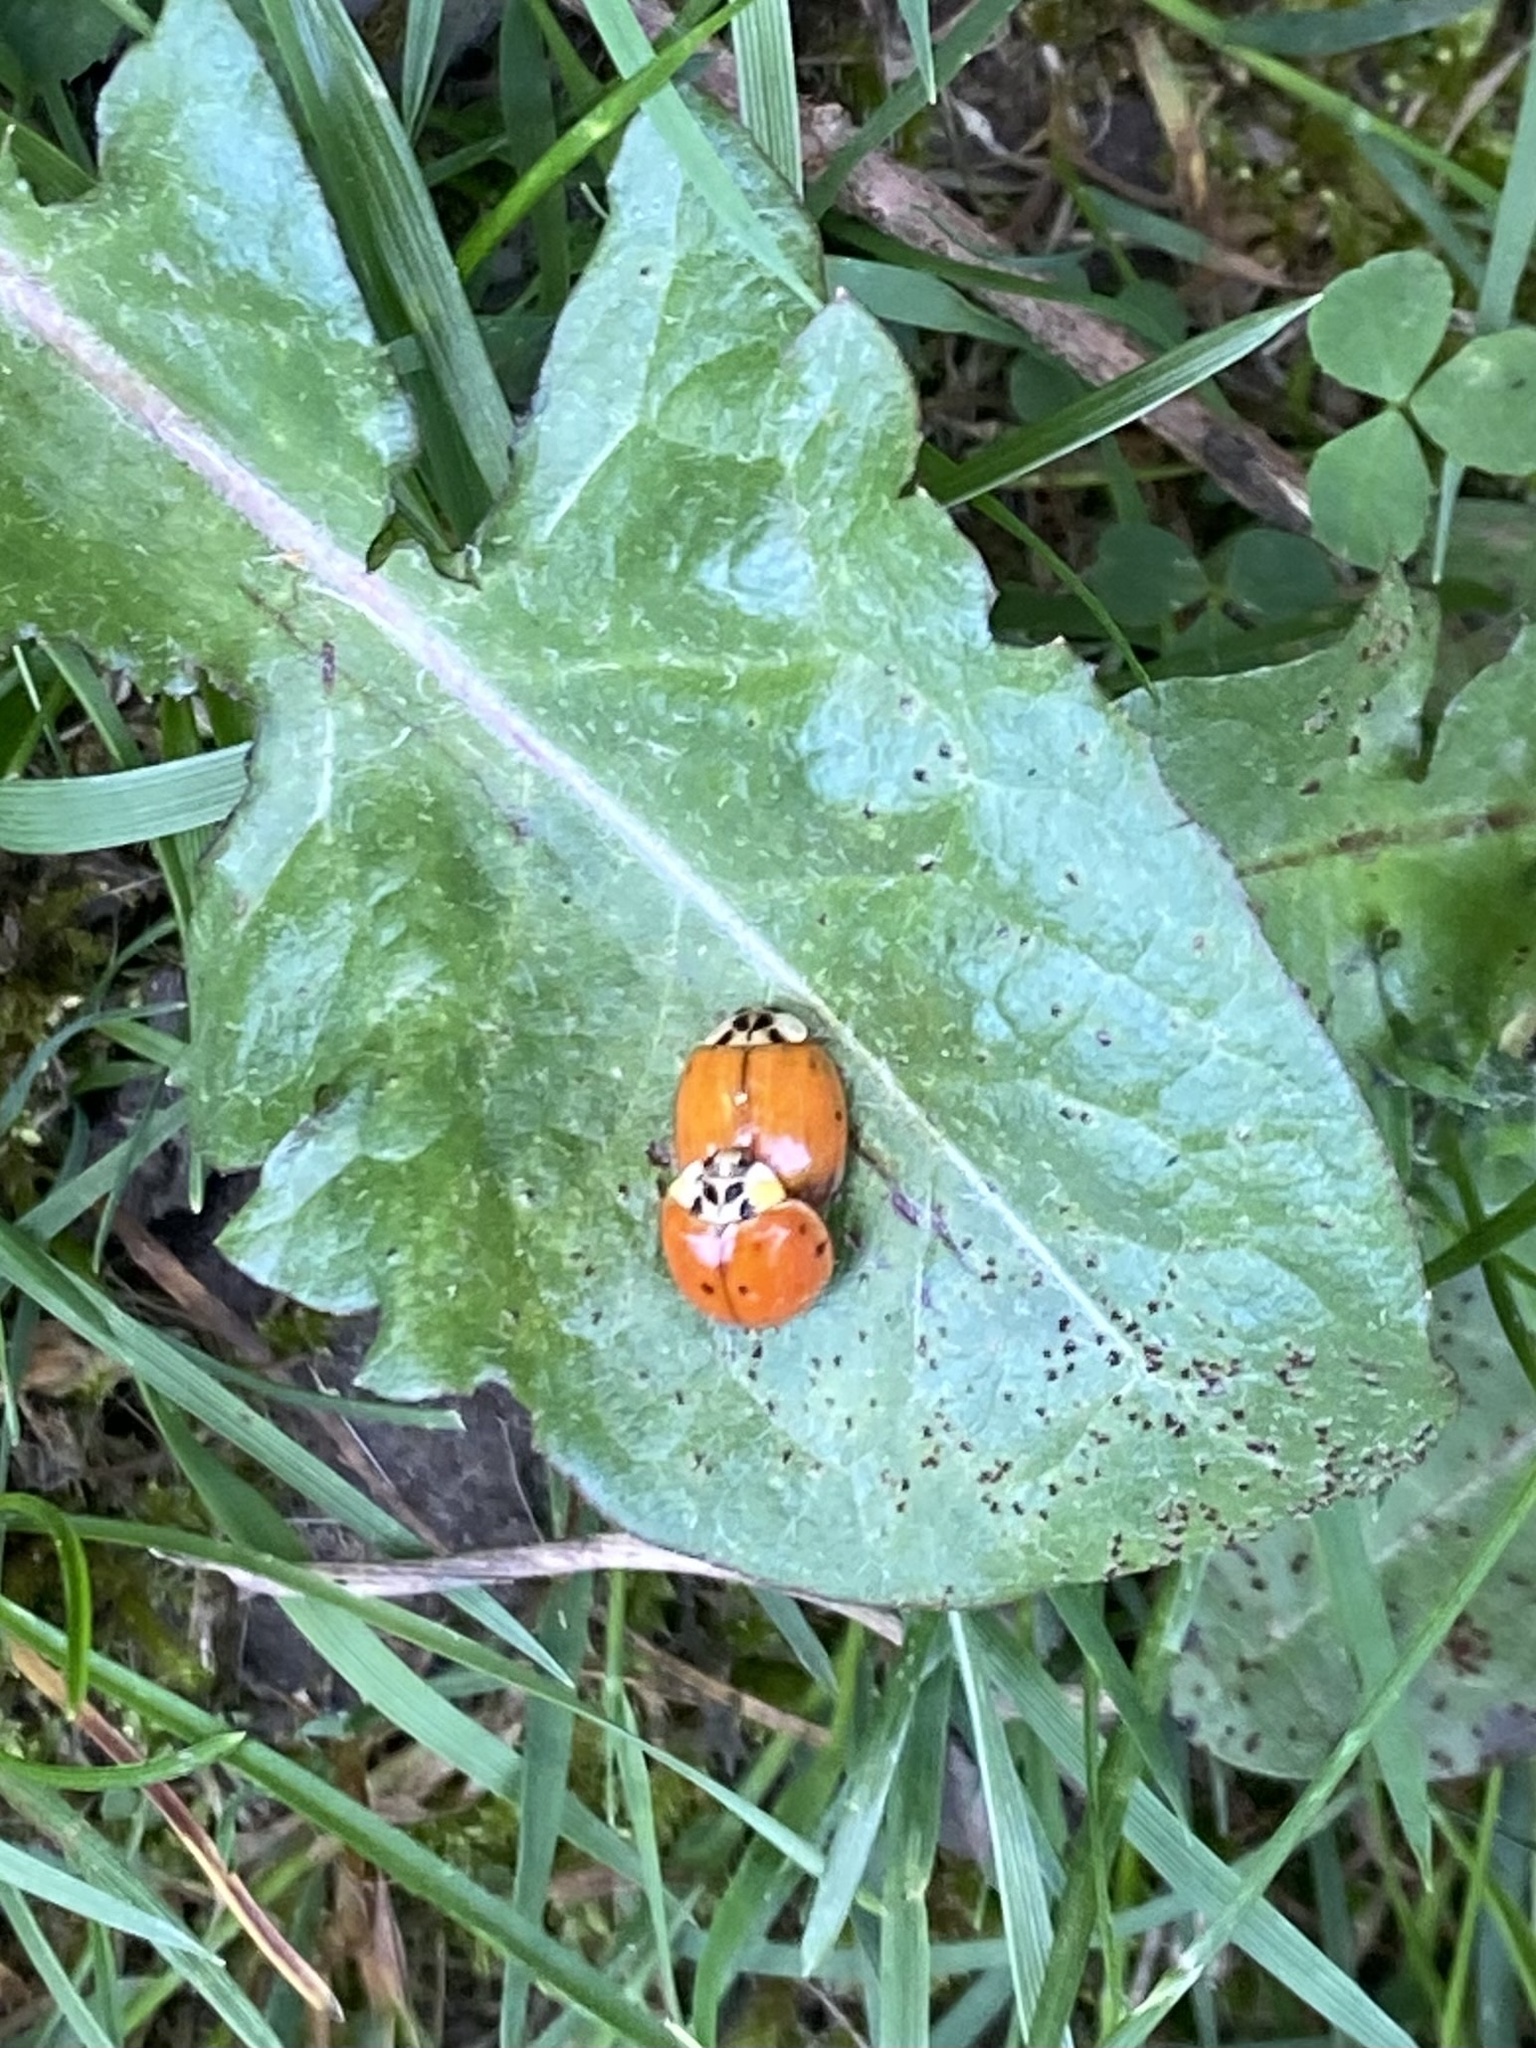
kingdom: Animalia
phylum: Arthropoda
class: Insecta
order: Coleoptera
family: Coccinellidae
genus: Harmonia
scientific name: Harmonia axyridis
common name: Harlequin ladybird
